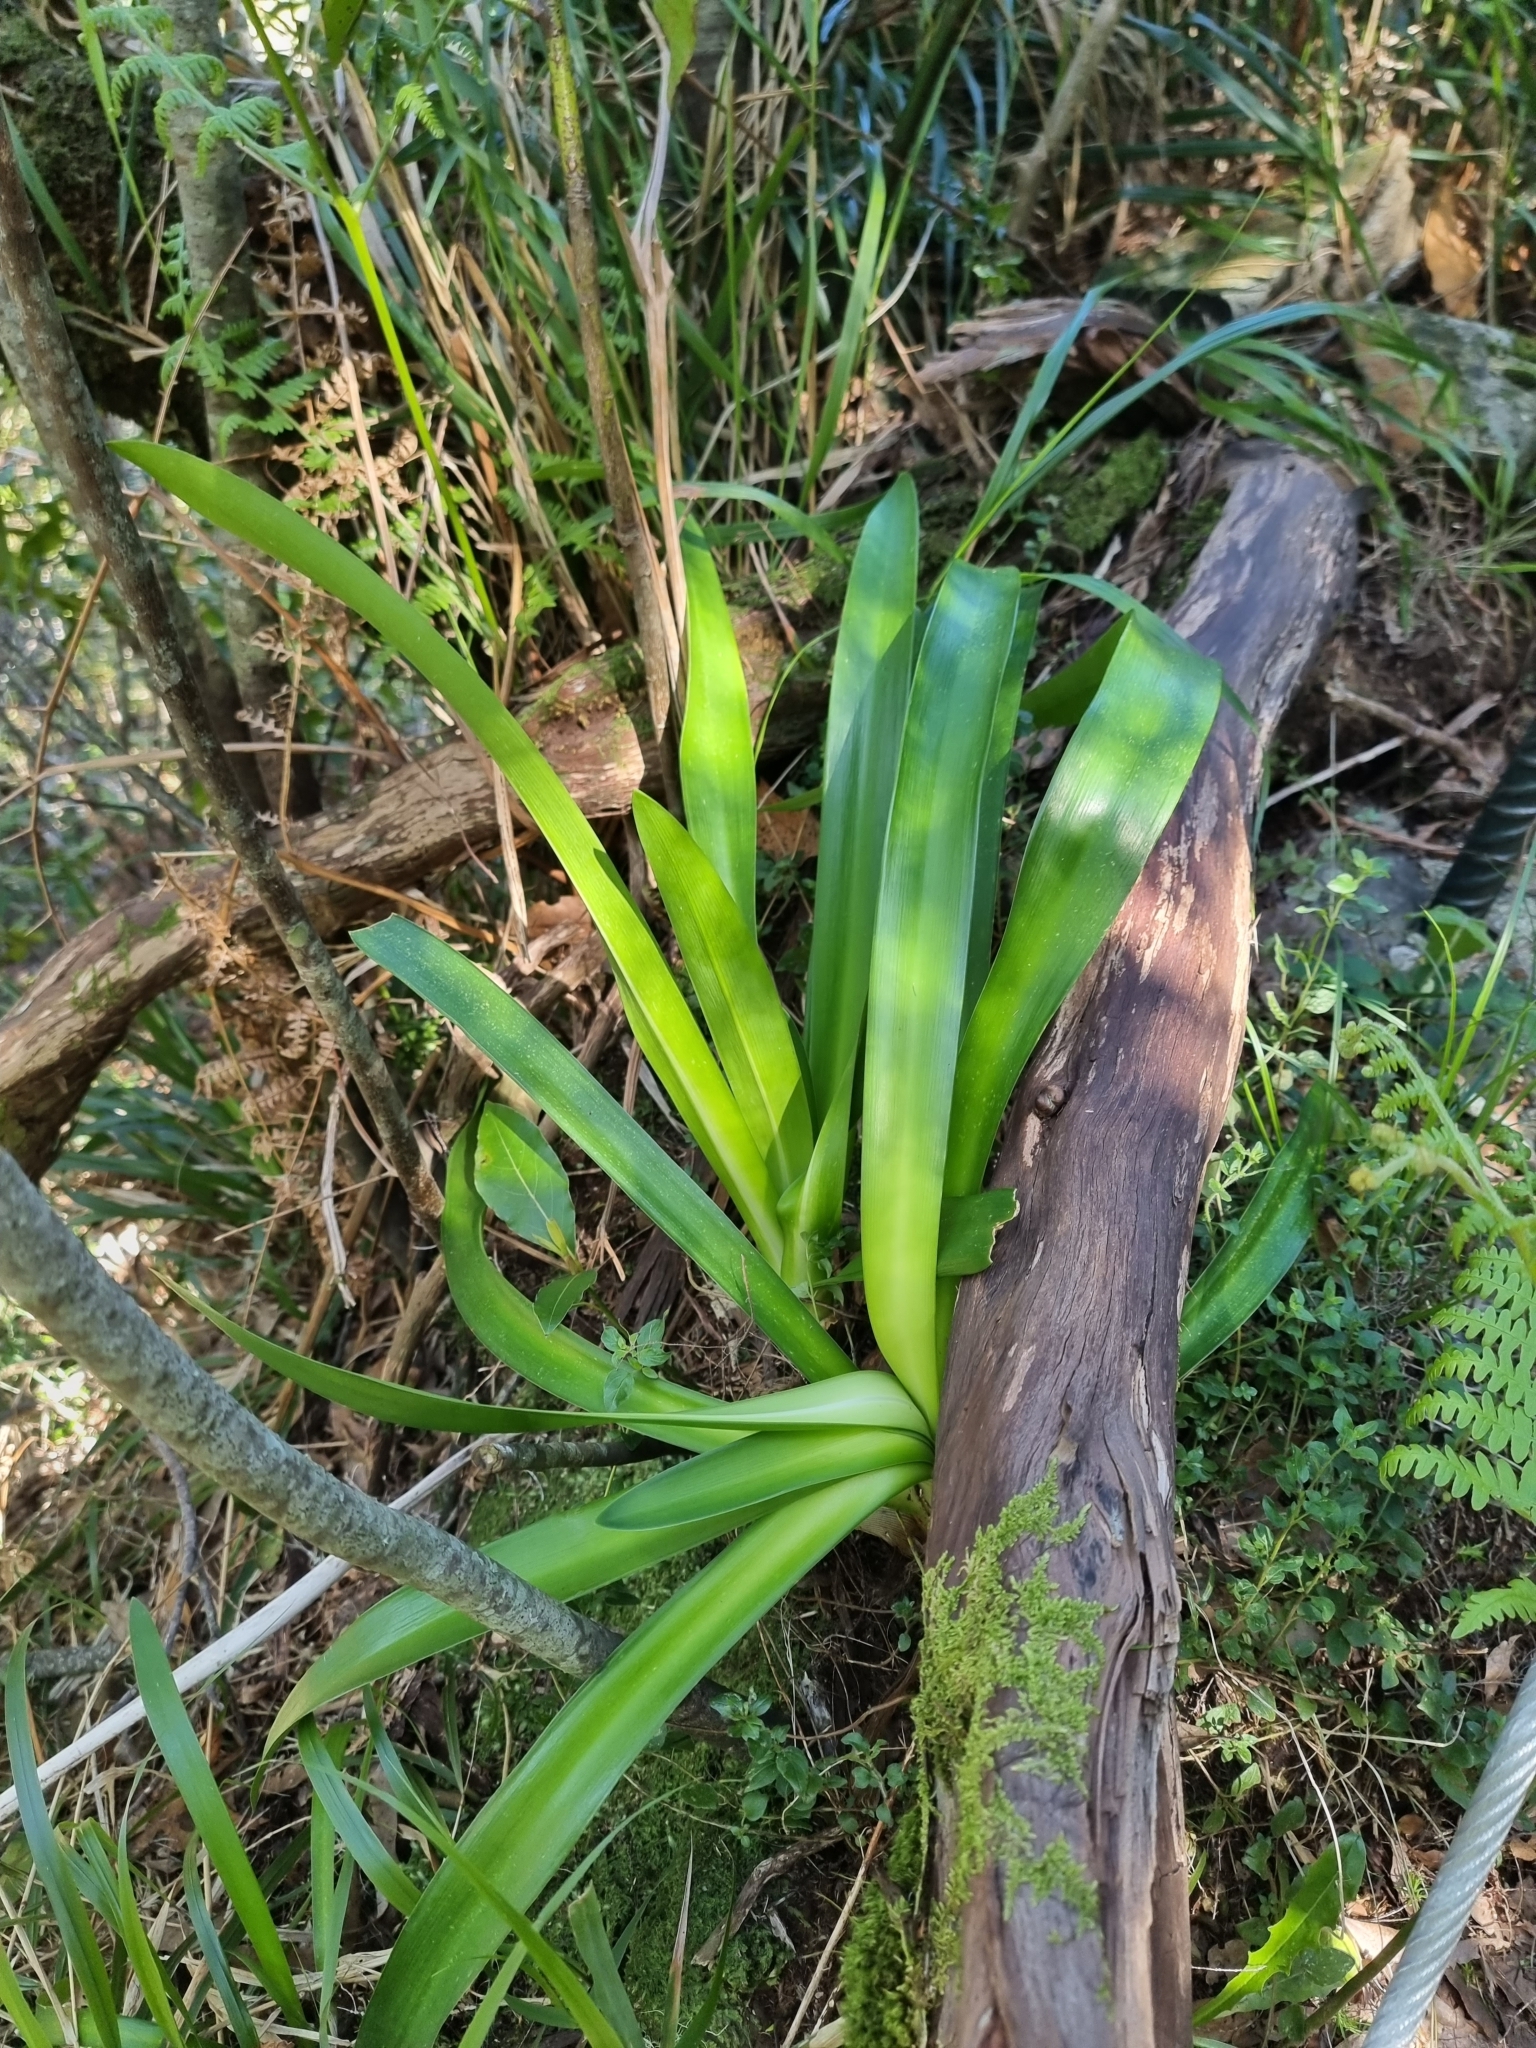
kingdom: Plantae
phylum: Tracheophyta
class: Liliopsida
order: Asparagales
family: Amaryllidaceae
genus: Agapanthus
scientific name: Agapanthus praecox
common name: African-lily
